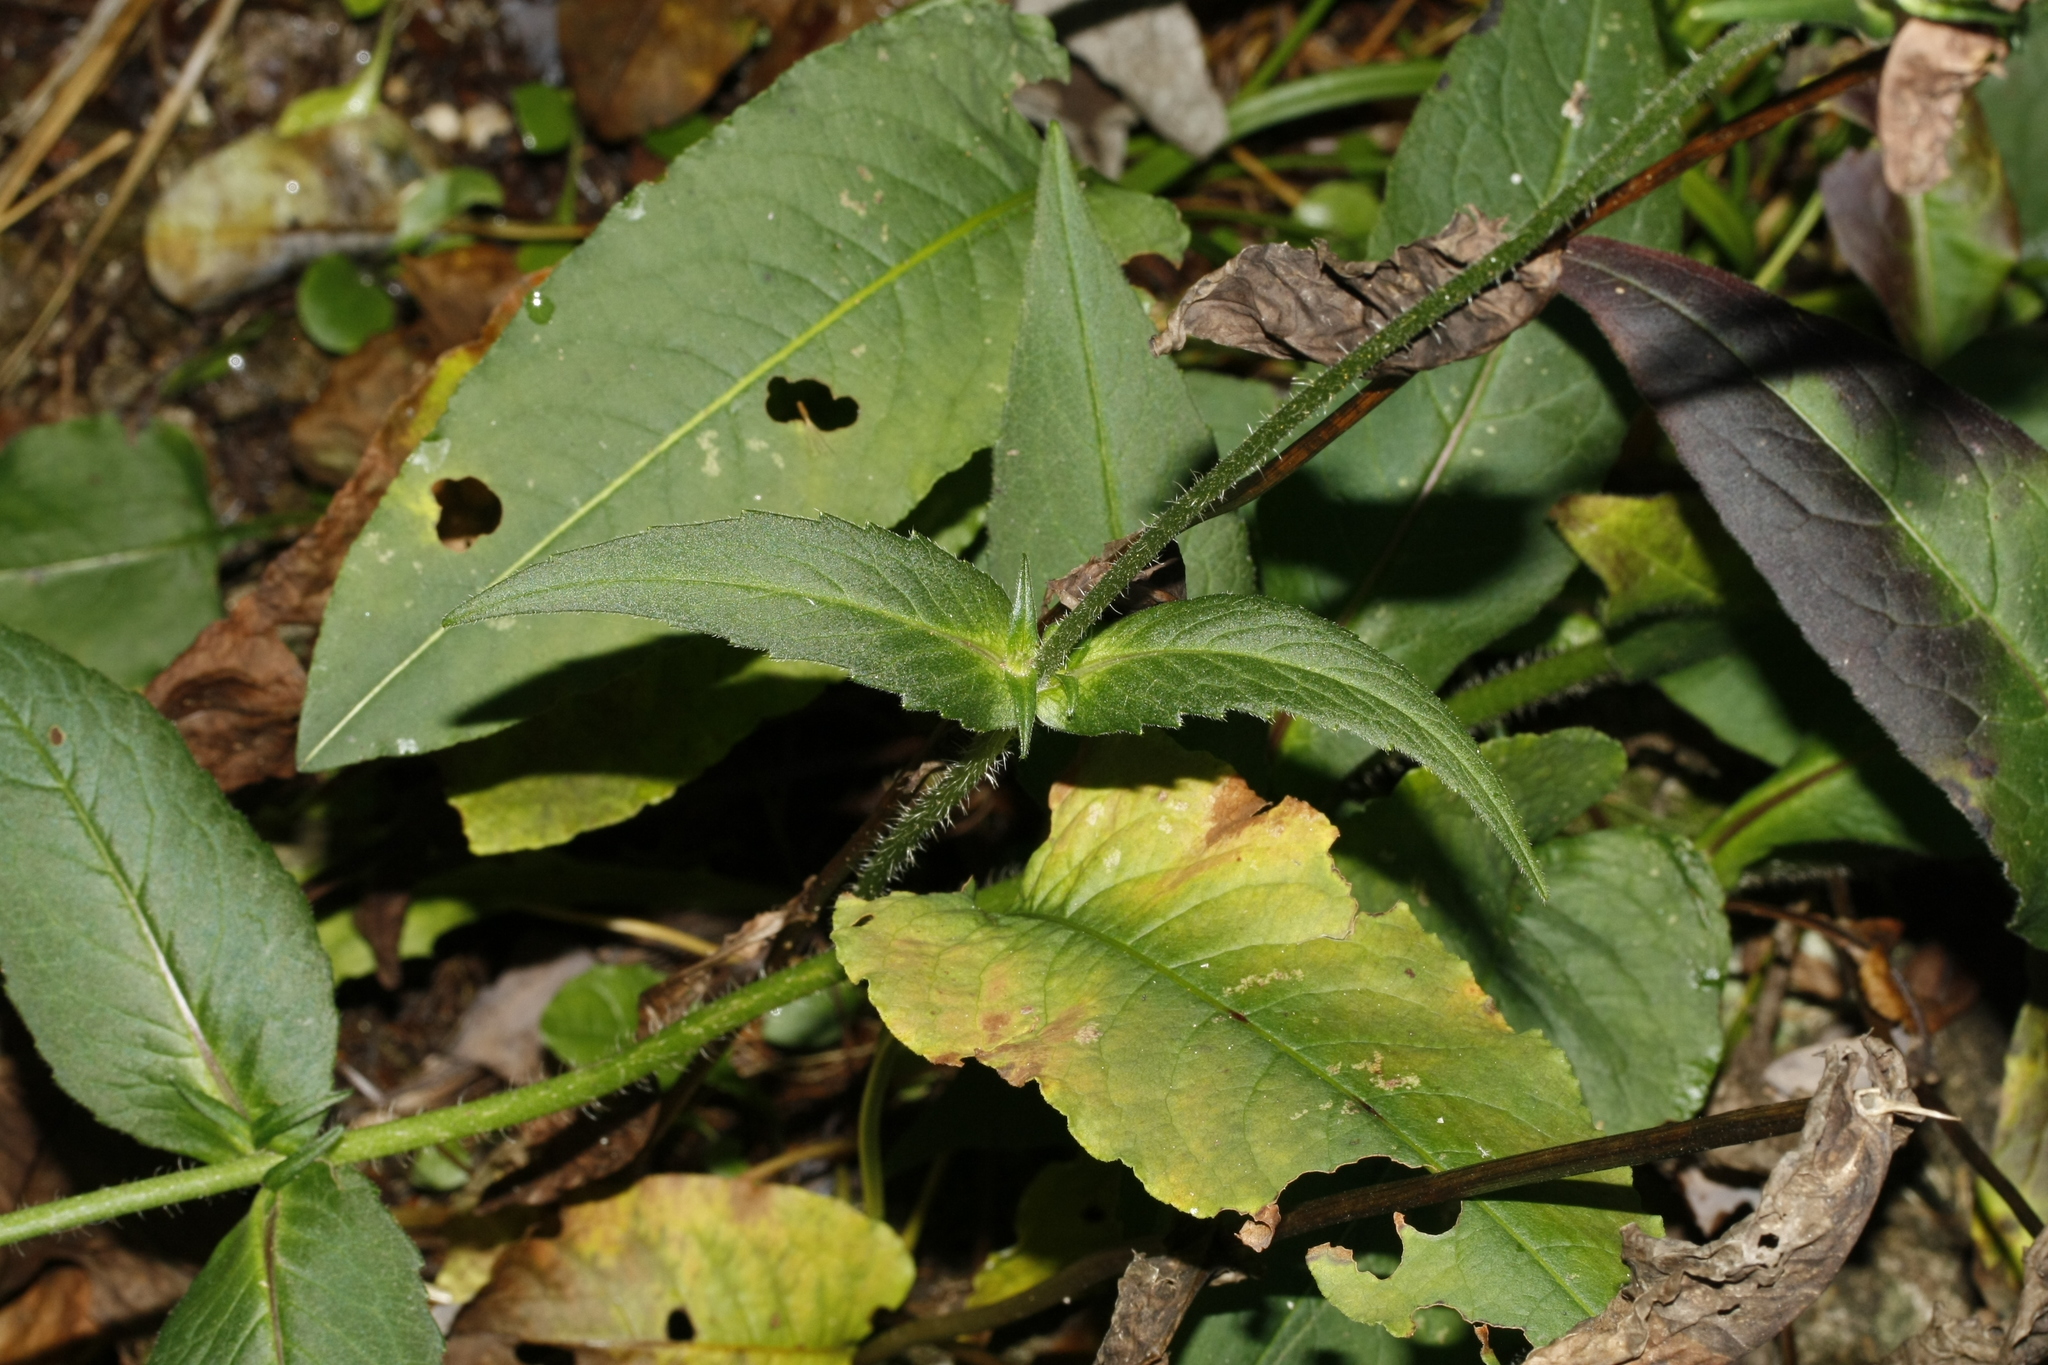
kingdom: Plantae
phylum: Tracheophyta
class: Magnoliopsida
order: Dipsacales
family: Caprifoliaceae
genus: Knautia
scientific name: Knautia dipsacifolia
